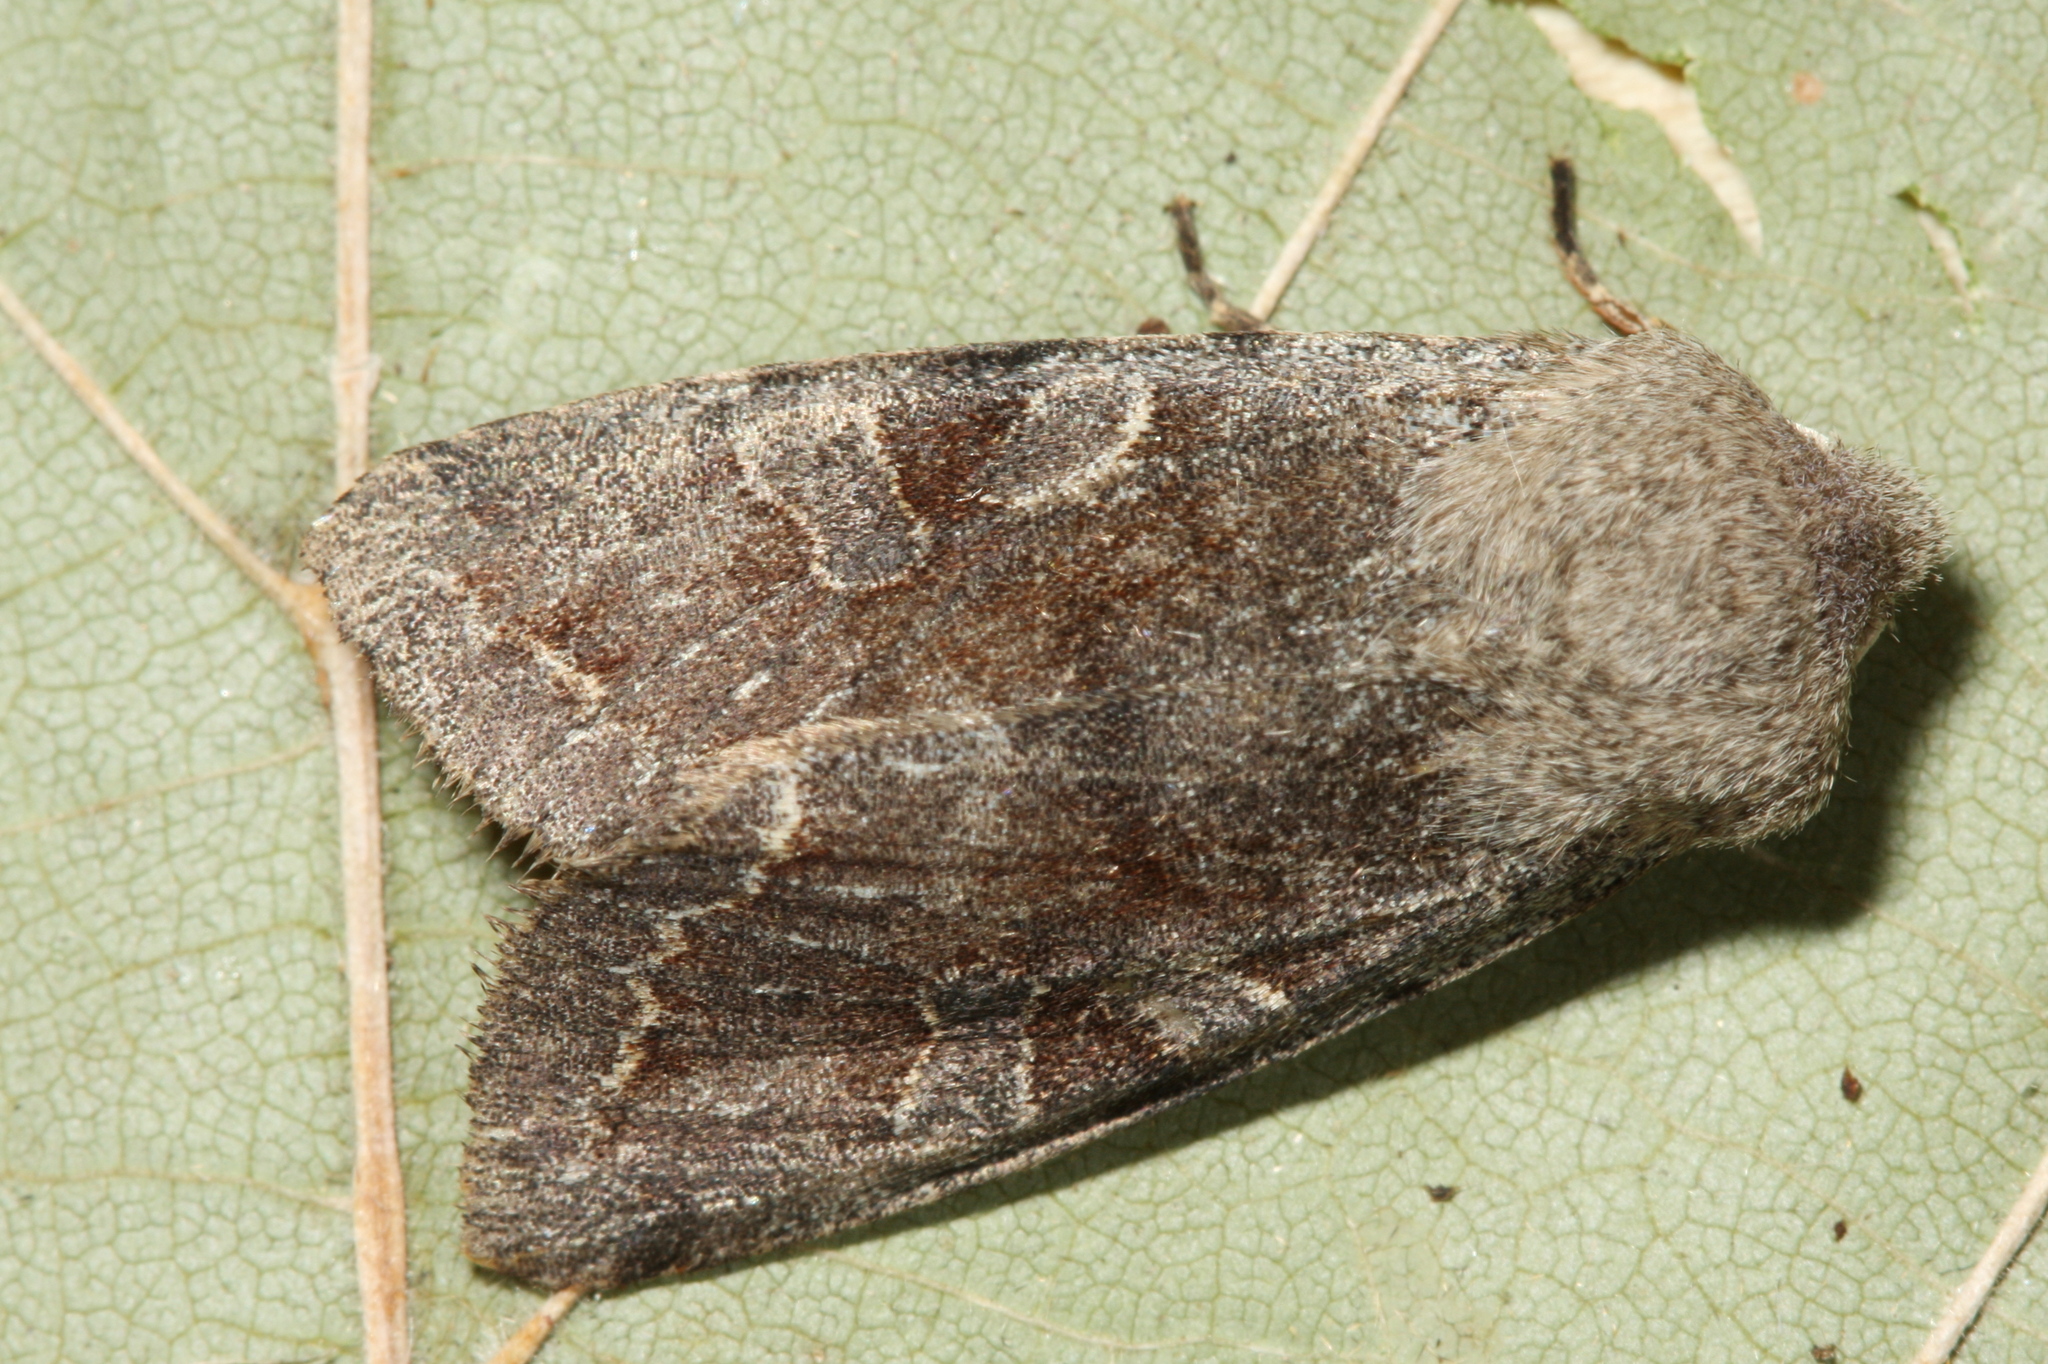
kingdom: Animalia
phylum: Arthropoda
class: Insecta
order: Lepidoptera
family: Noctuidae
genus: Orthosia
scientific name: Orthosia incerta
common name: Clouded drab
